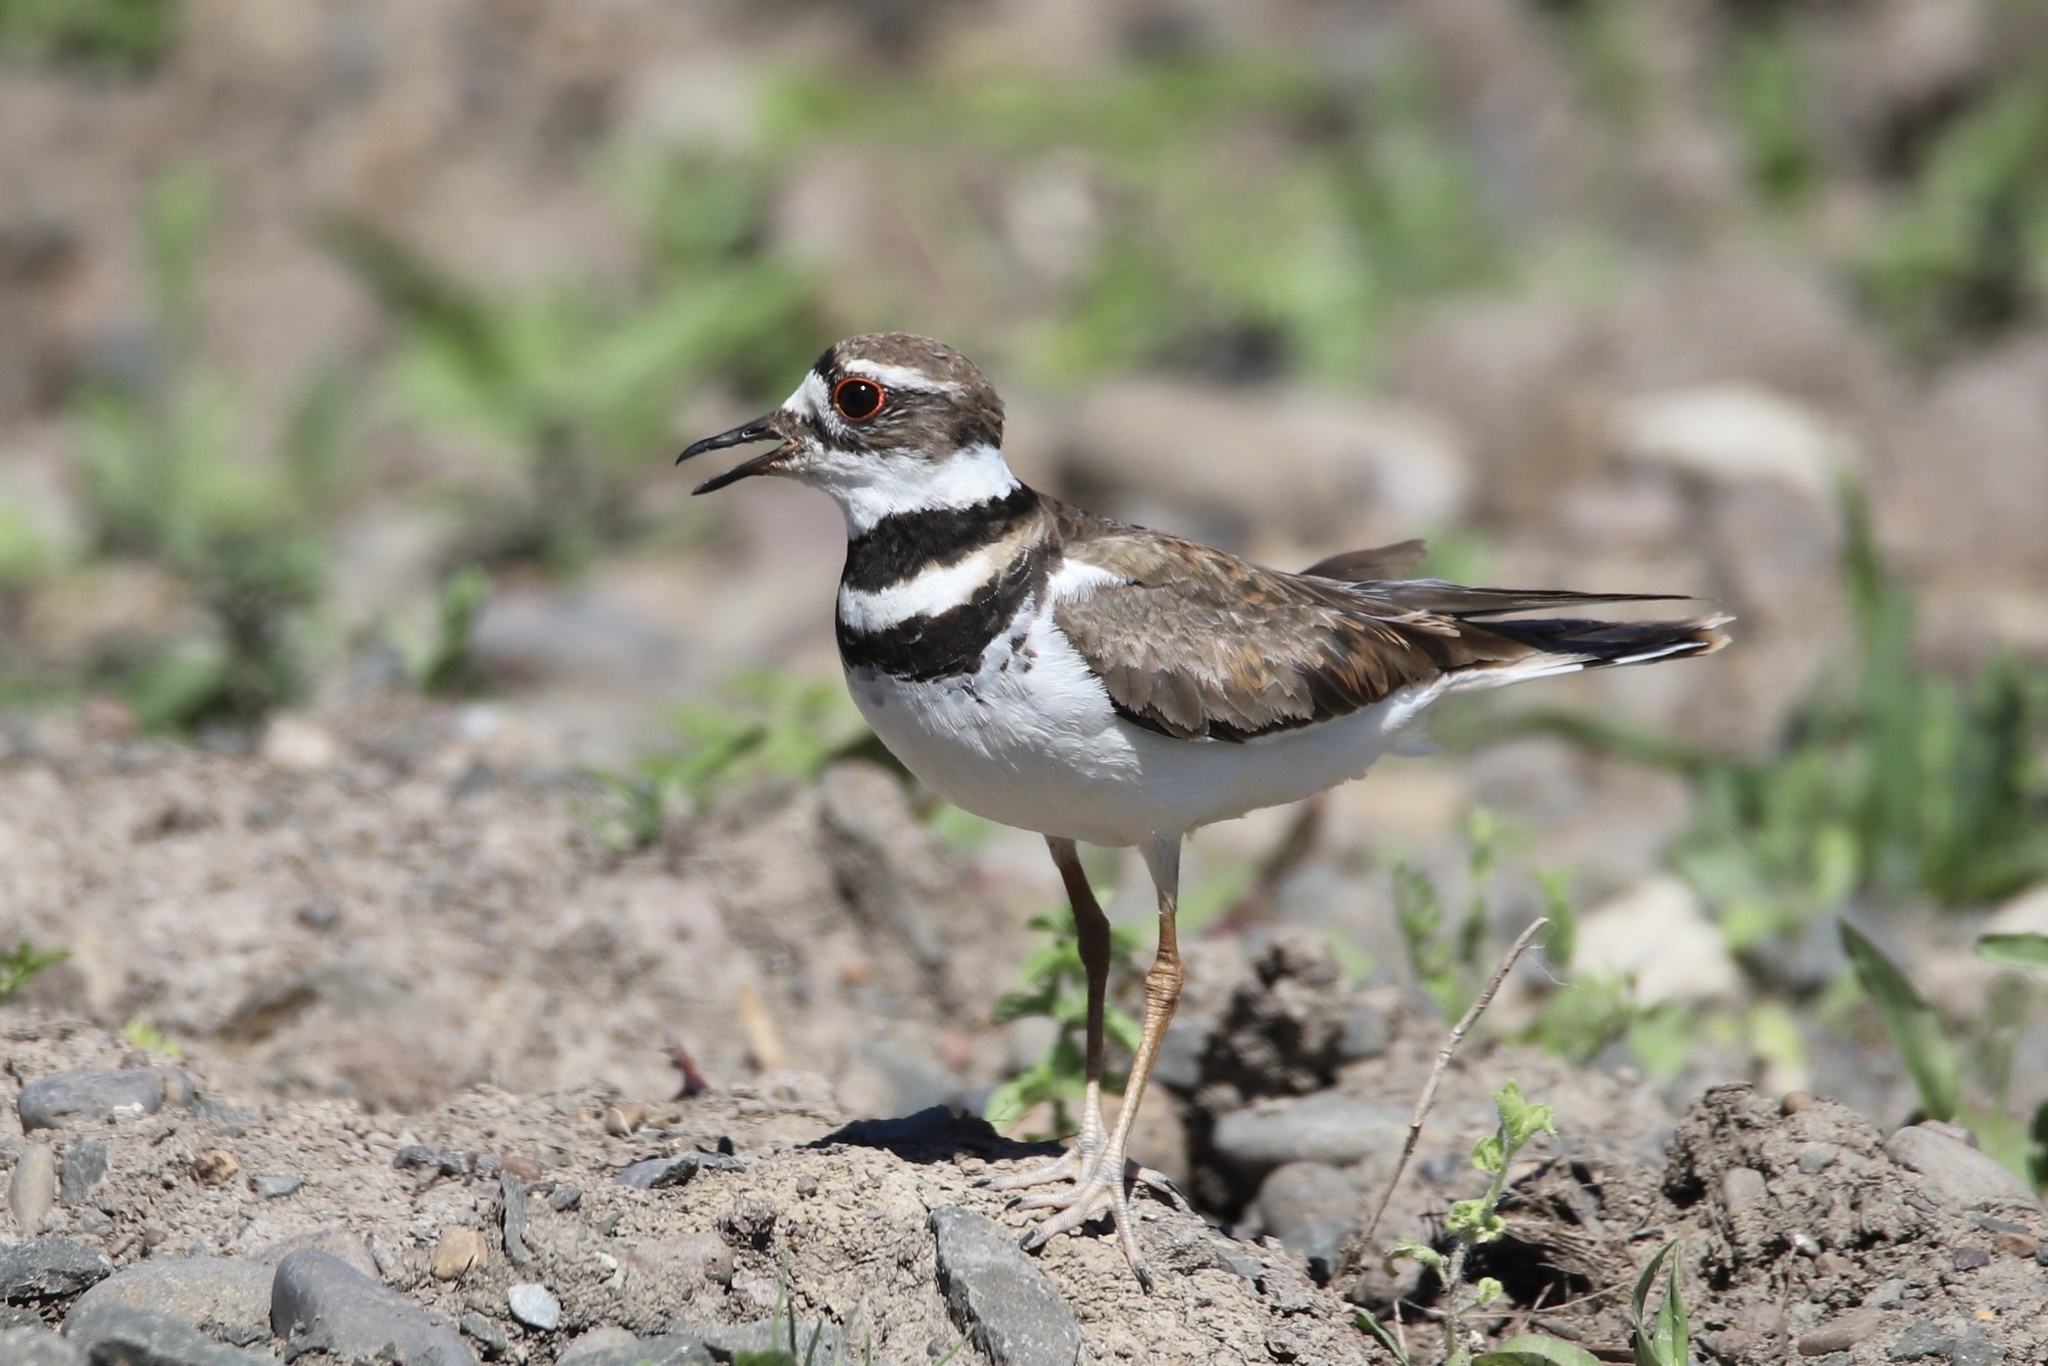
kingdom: Animalia
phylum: Chordata
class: Aves
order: Charadriiformes
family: Charadriidae
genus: Charadrius
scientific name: Charadrius vociferus
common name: Killdeer
